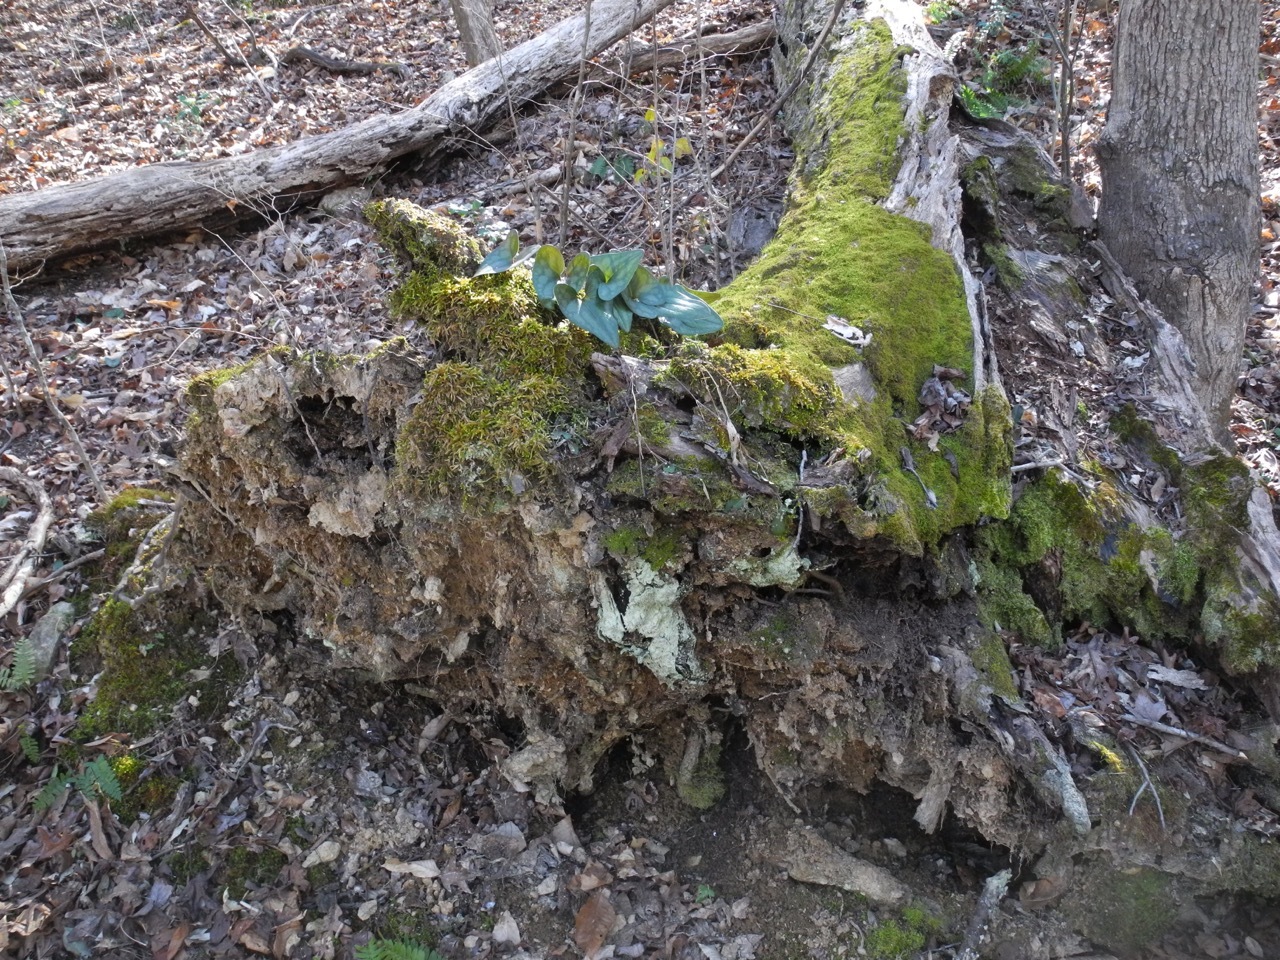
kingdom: Plantae
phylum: Tracheophyta
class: Magnoliopsida
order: Piperales
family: Aristolochiaceae
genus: Hexastylis
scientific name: Hexastylis arifolia
